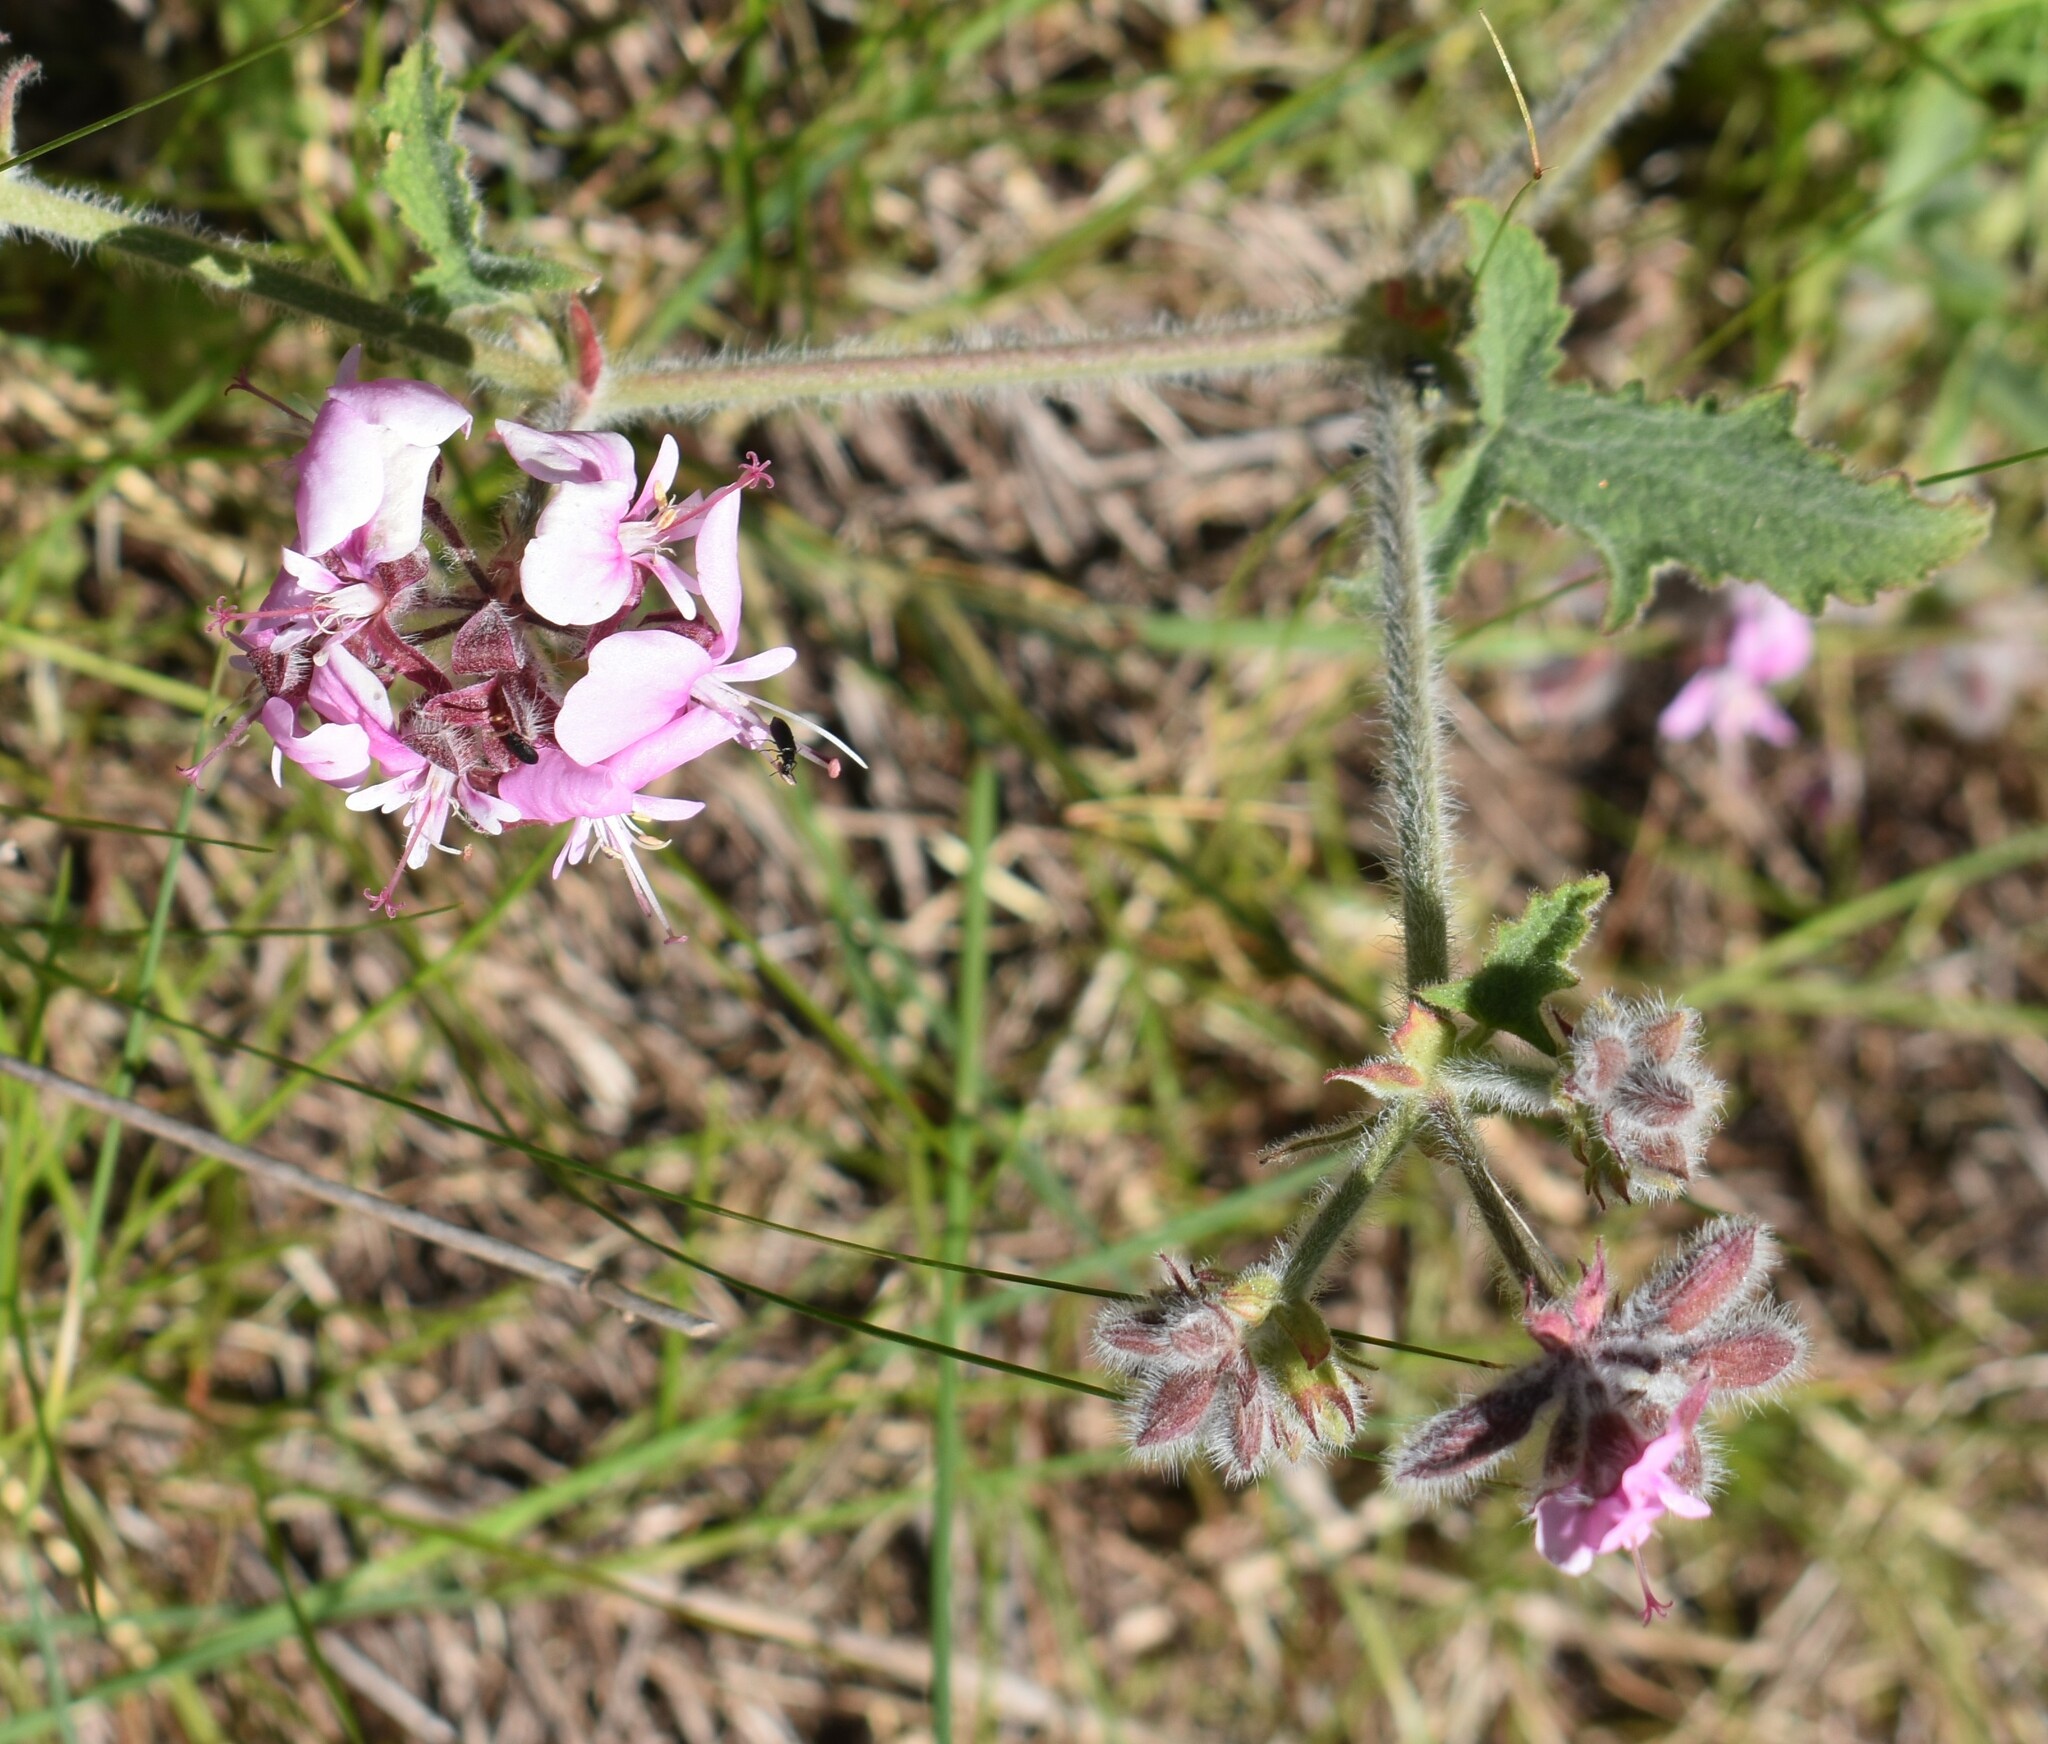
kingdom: Plantae
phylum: Tracheophyta
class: Magnoliopsida
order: Geraniales
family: Geraniaceae
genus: Pelargonium
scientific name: Pelargonium hispidum
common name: Hispid pelargonium
